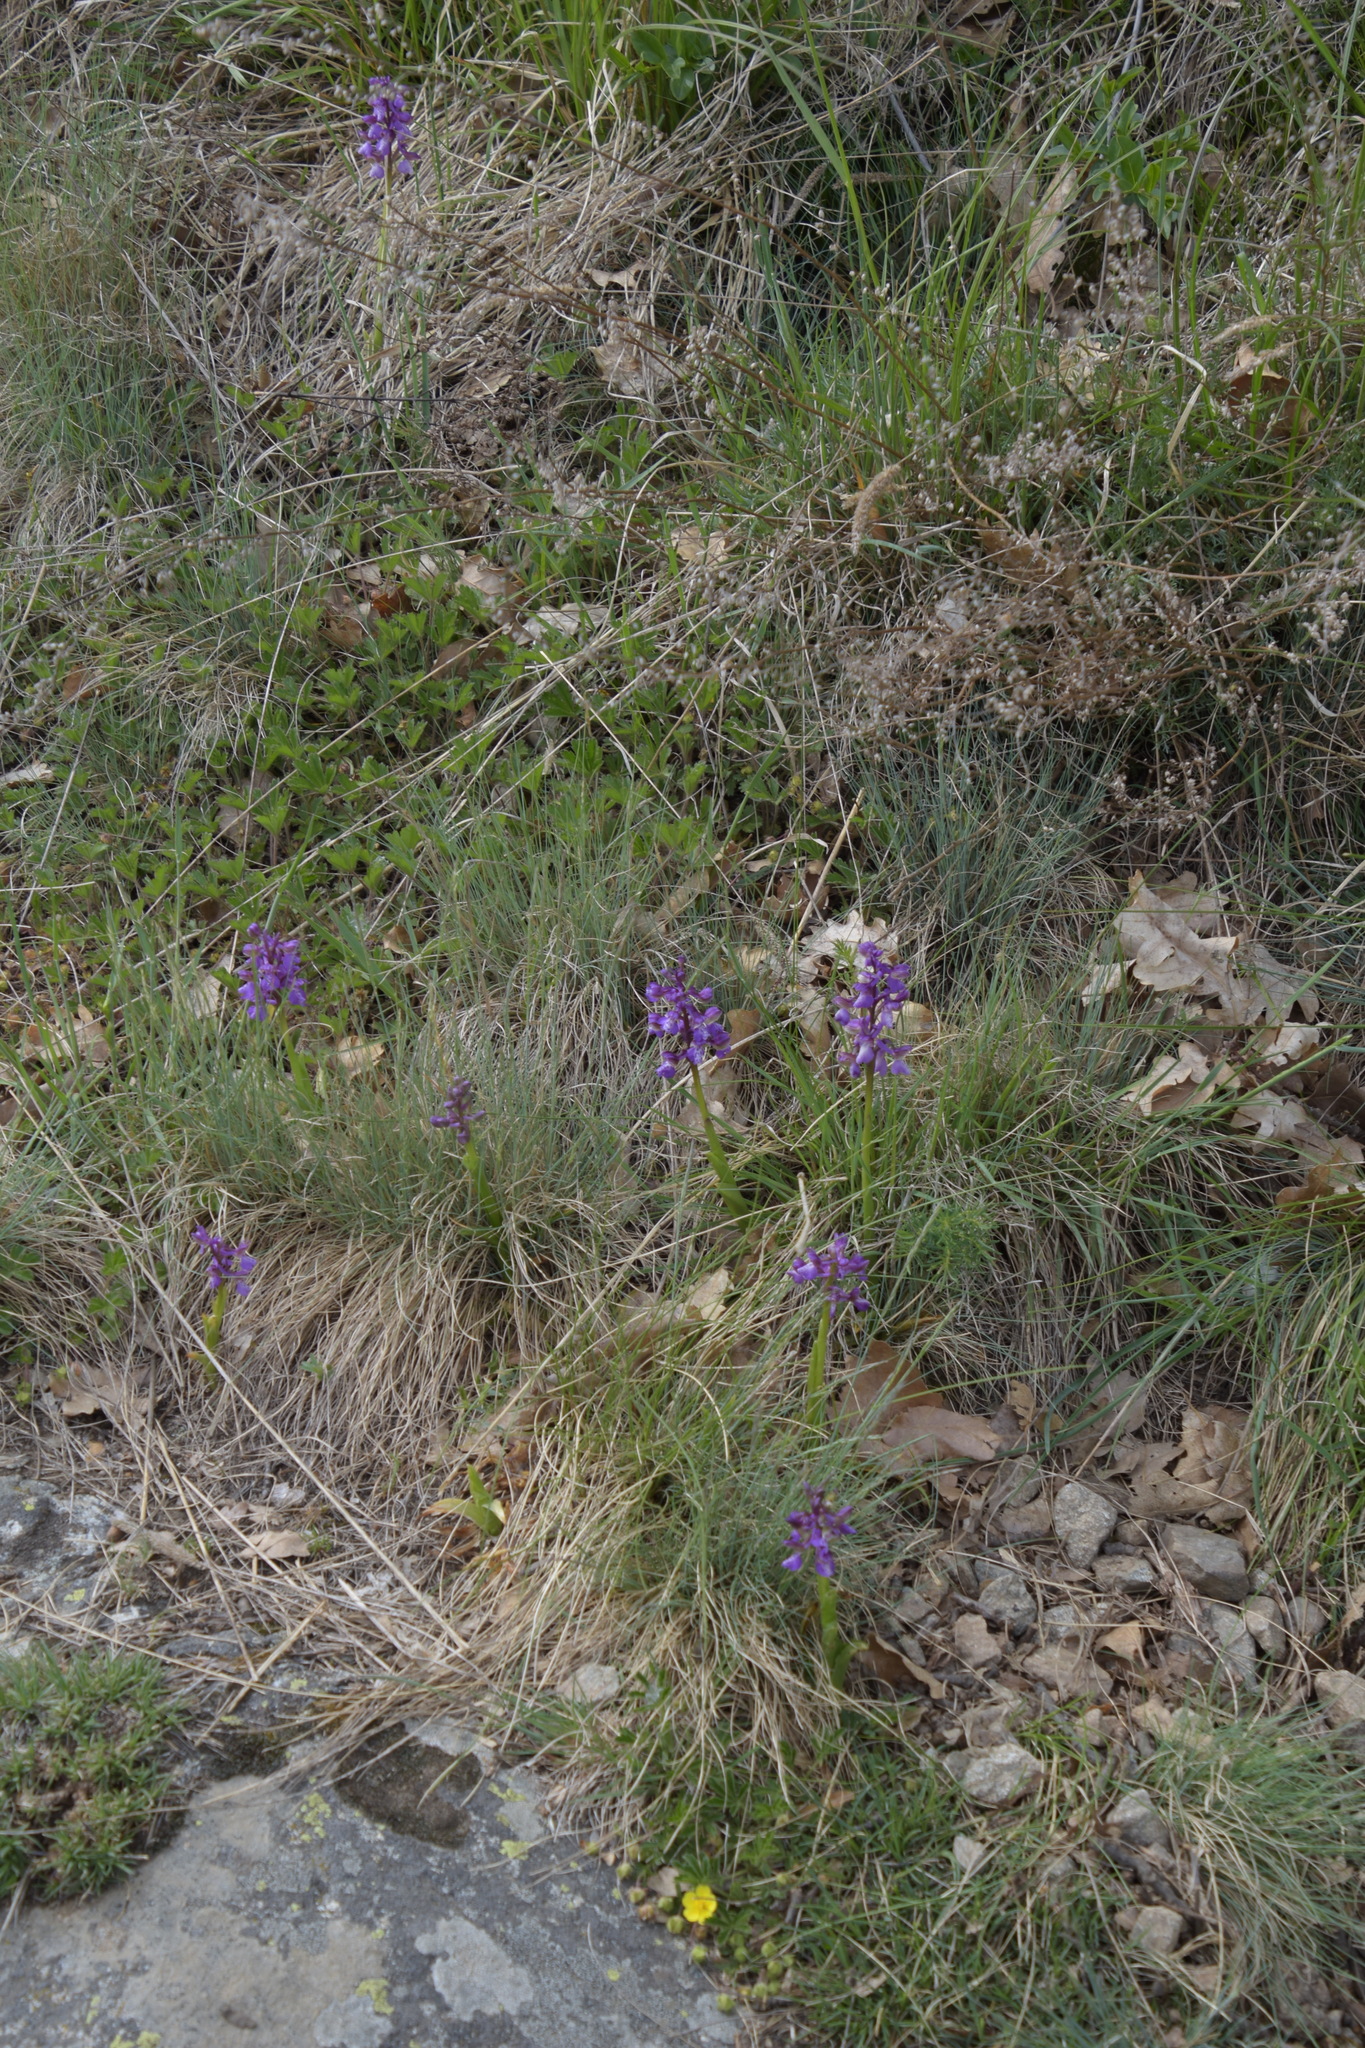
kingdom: Plantae
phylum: Tracheophyta
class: Liliopsida
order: Asparagales
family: Orchidaceae
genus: Anacamptis
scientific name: Anacamptis morio
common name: Green-winged orchid
